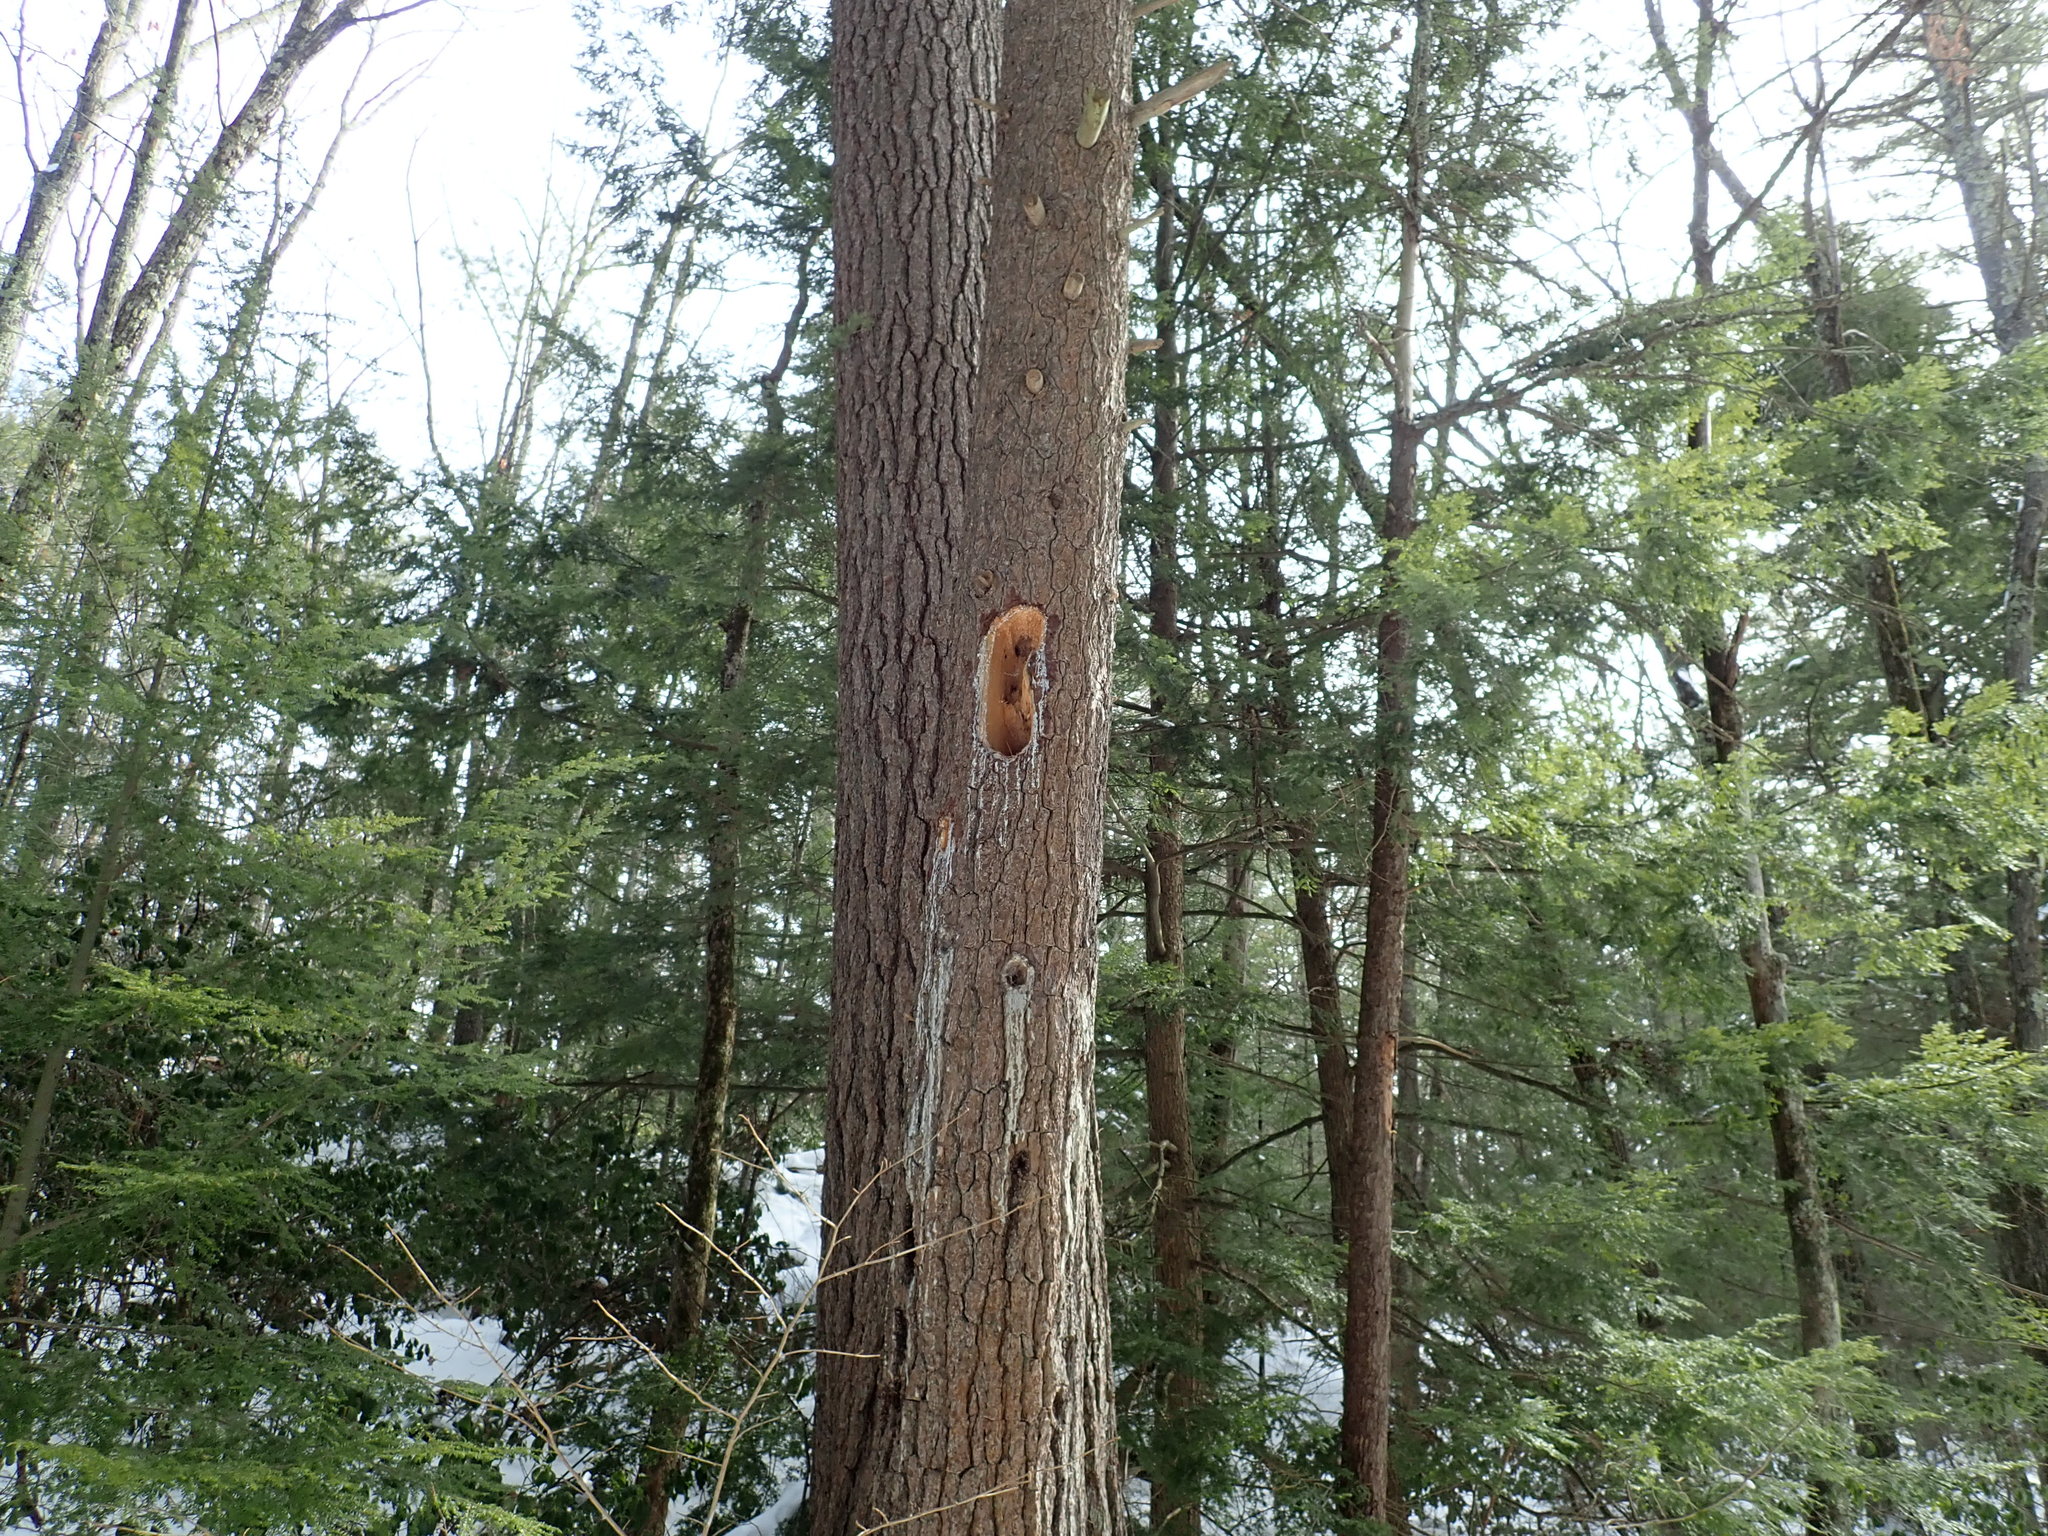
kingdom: Animalia
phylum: Chordata
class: Aves
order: Piciformes
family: Picidae
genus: Dryocopus
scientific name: Dryocopus pileatus
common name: Pileated woodpecker
